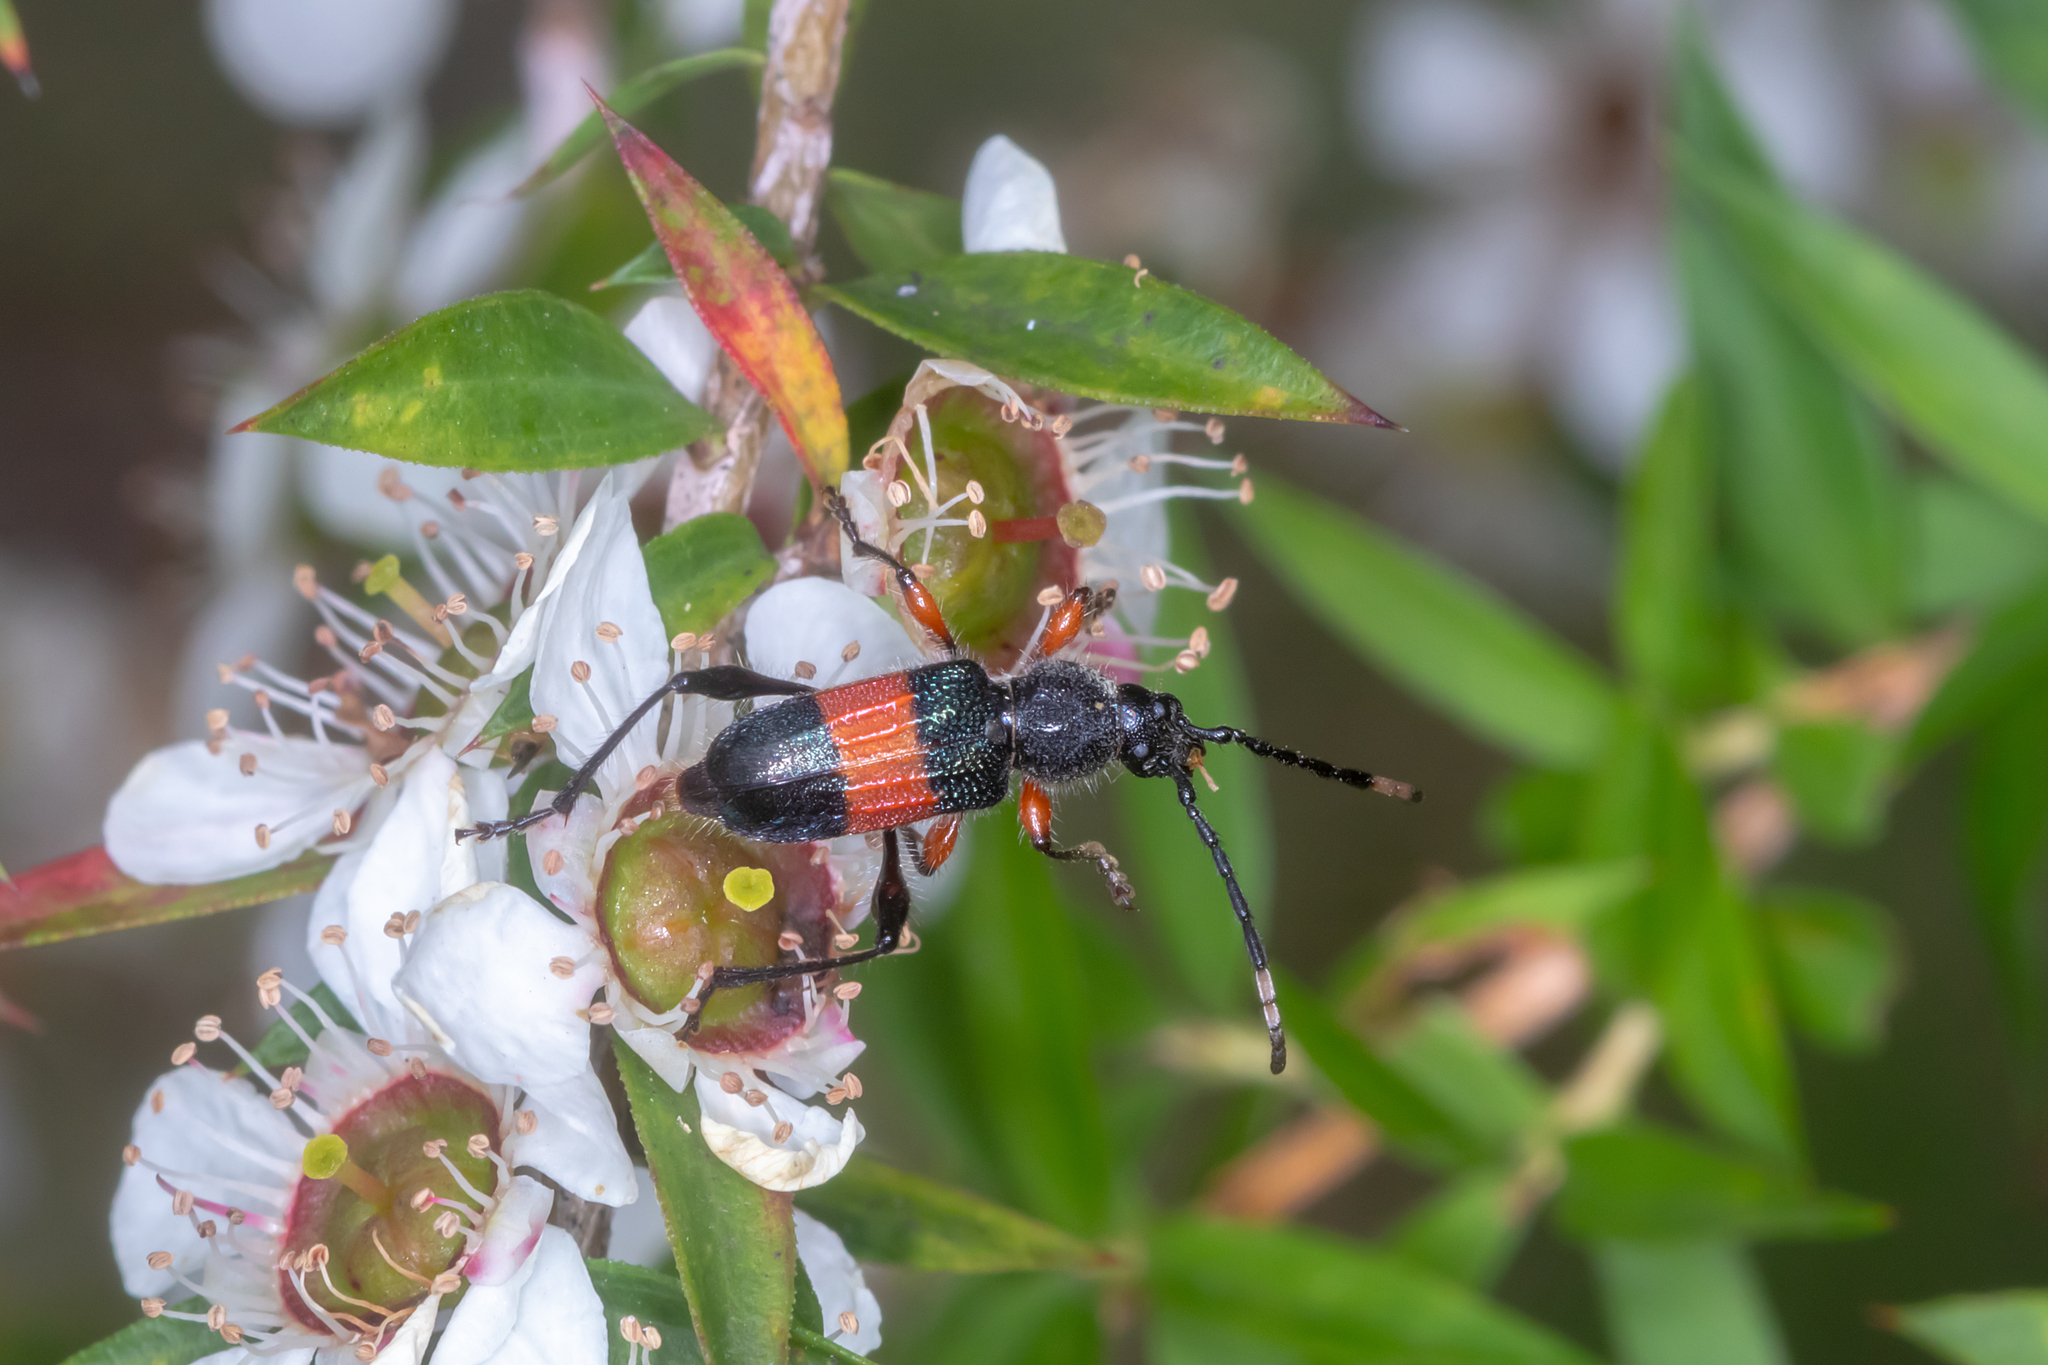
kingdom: Animalia
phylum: Arthropoda
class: Insecta
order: Coleoptera
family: Cerambycidae
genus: Obrida
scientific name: Obrida fascialis
